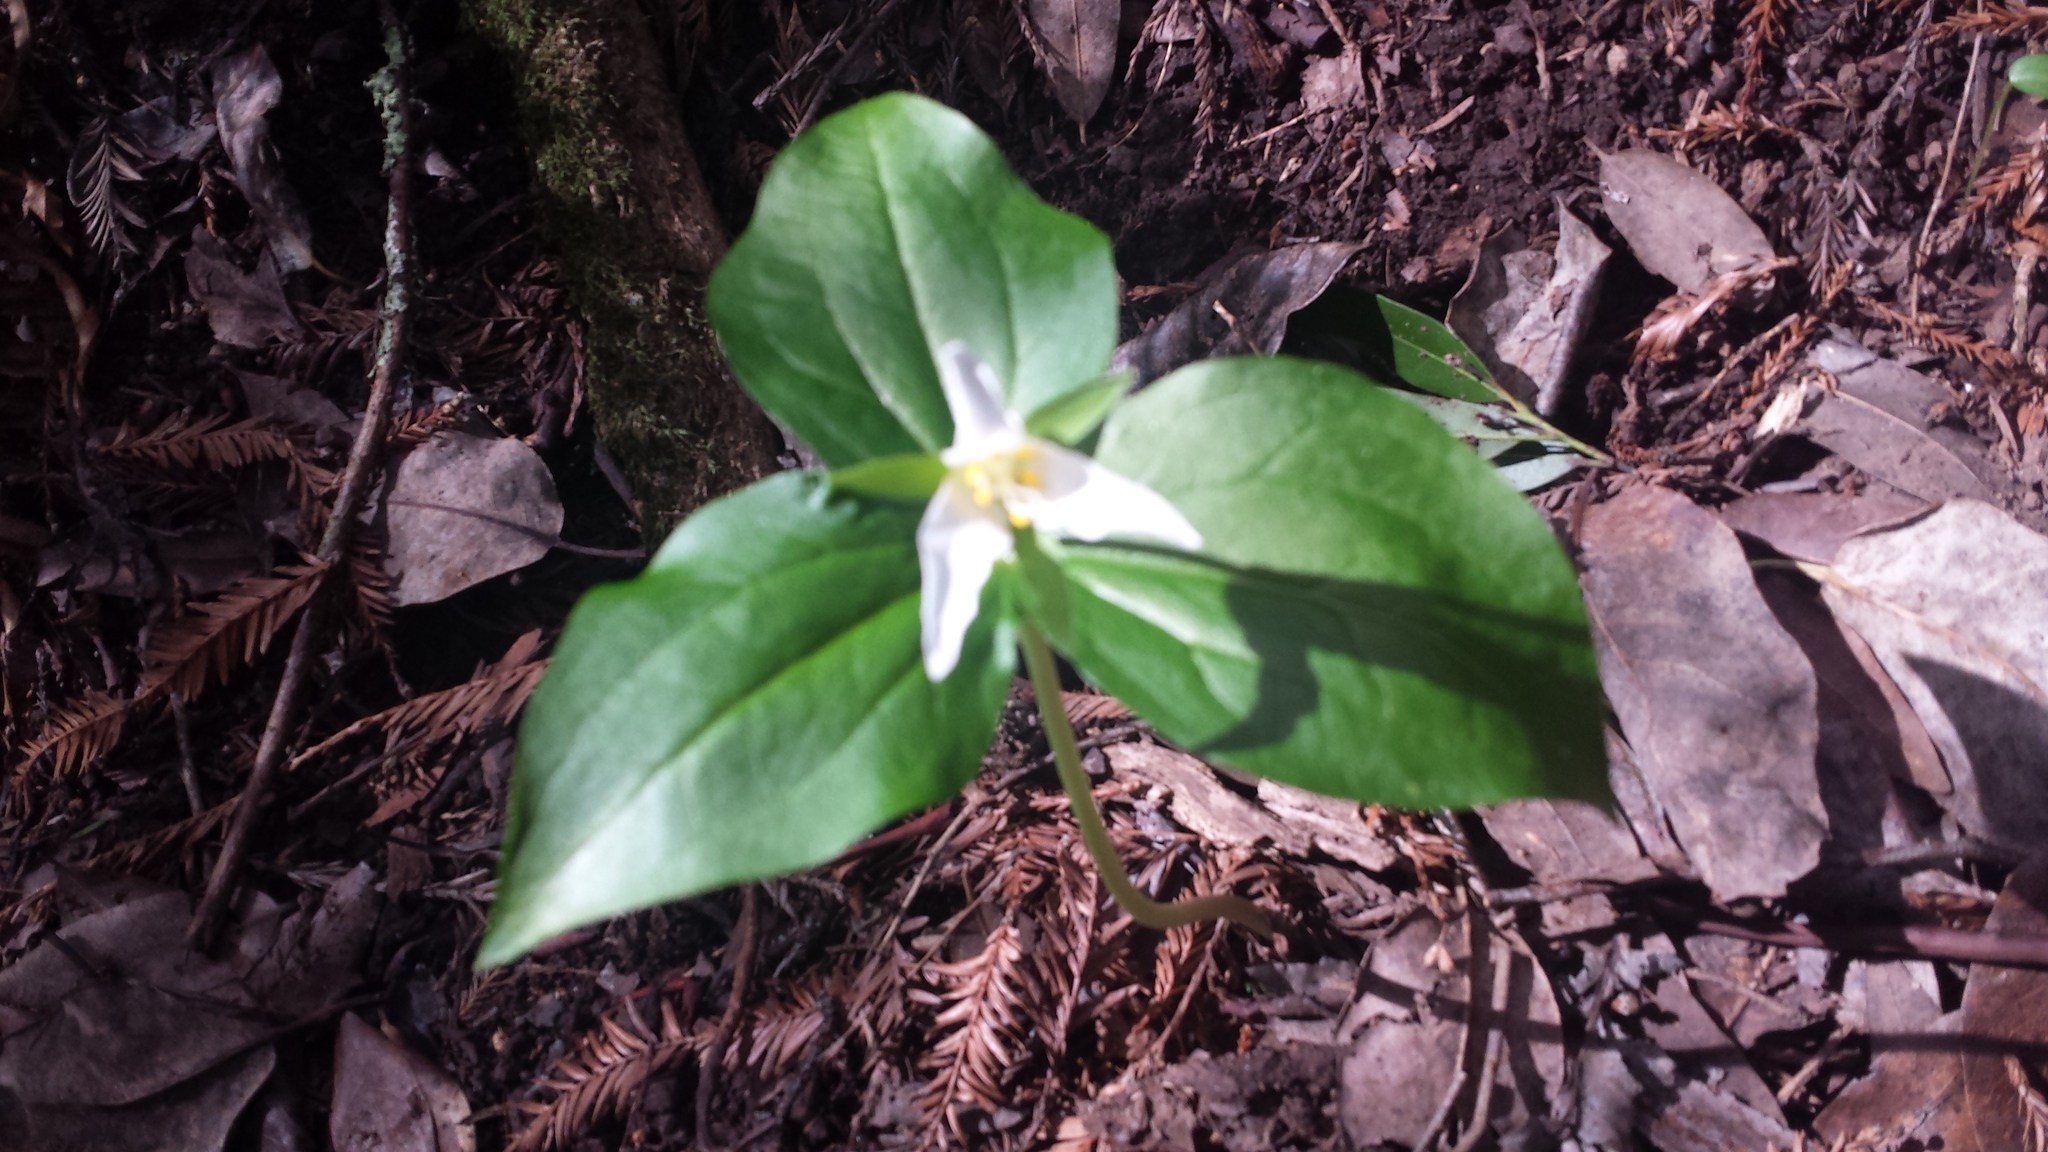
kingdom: Plantae
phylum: Tracheophyta
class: Liliopsida
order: Liliales
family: Melanthiaceae
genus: Trillium
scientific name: Trillium ovatum
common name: Pacific trillium
